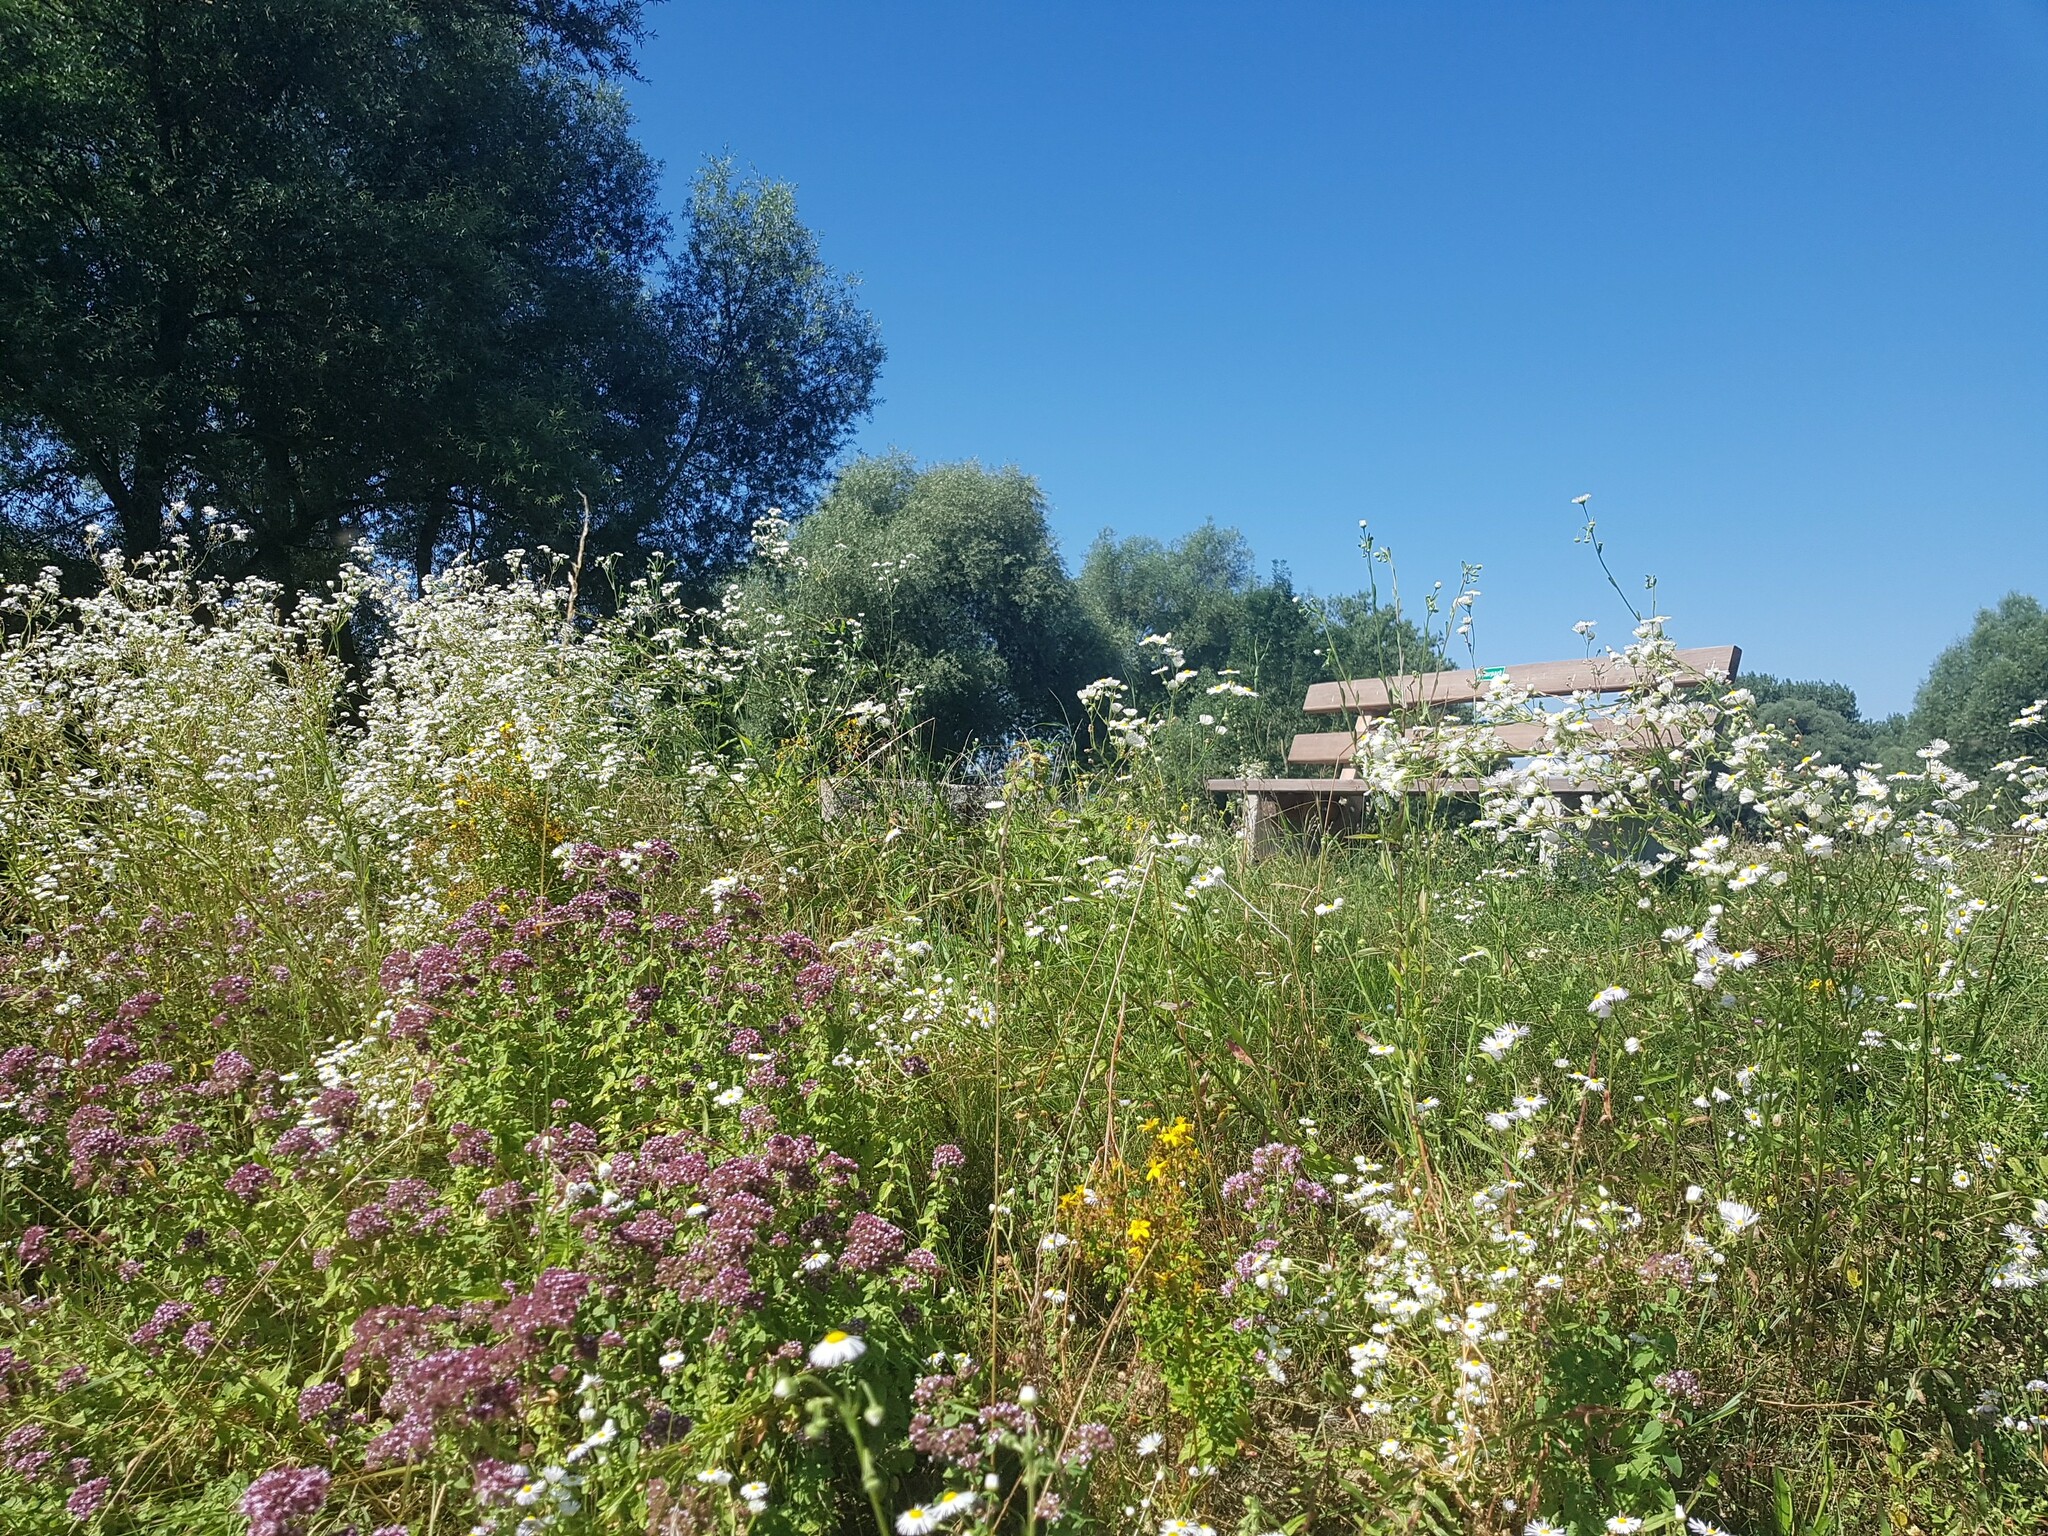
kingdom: Plantae
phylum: Tracheophyta
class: Magnoliopsida
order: Lamiales
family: Lamiaceae
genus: Origanum
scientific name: Origanum vulgare
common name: Wild marjoram
